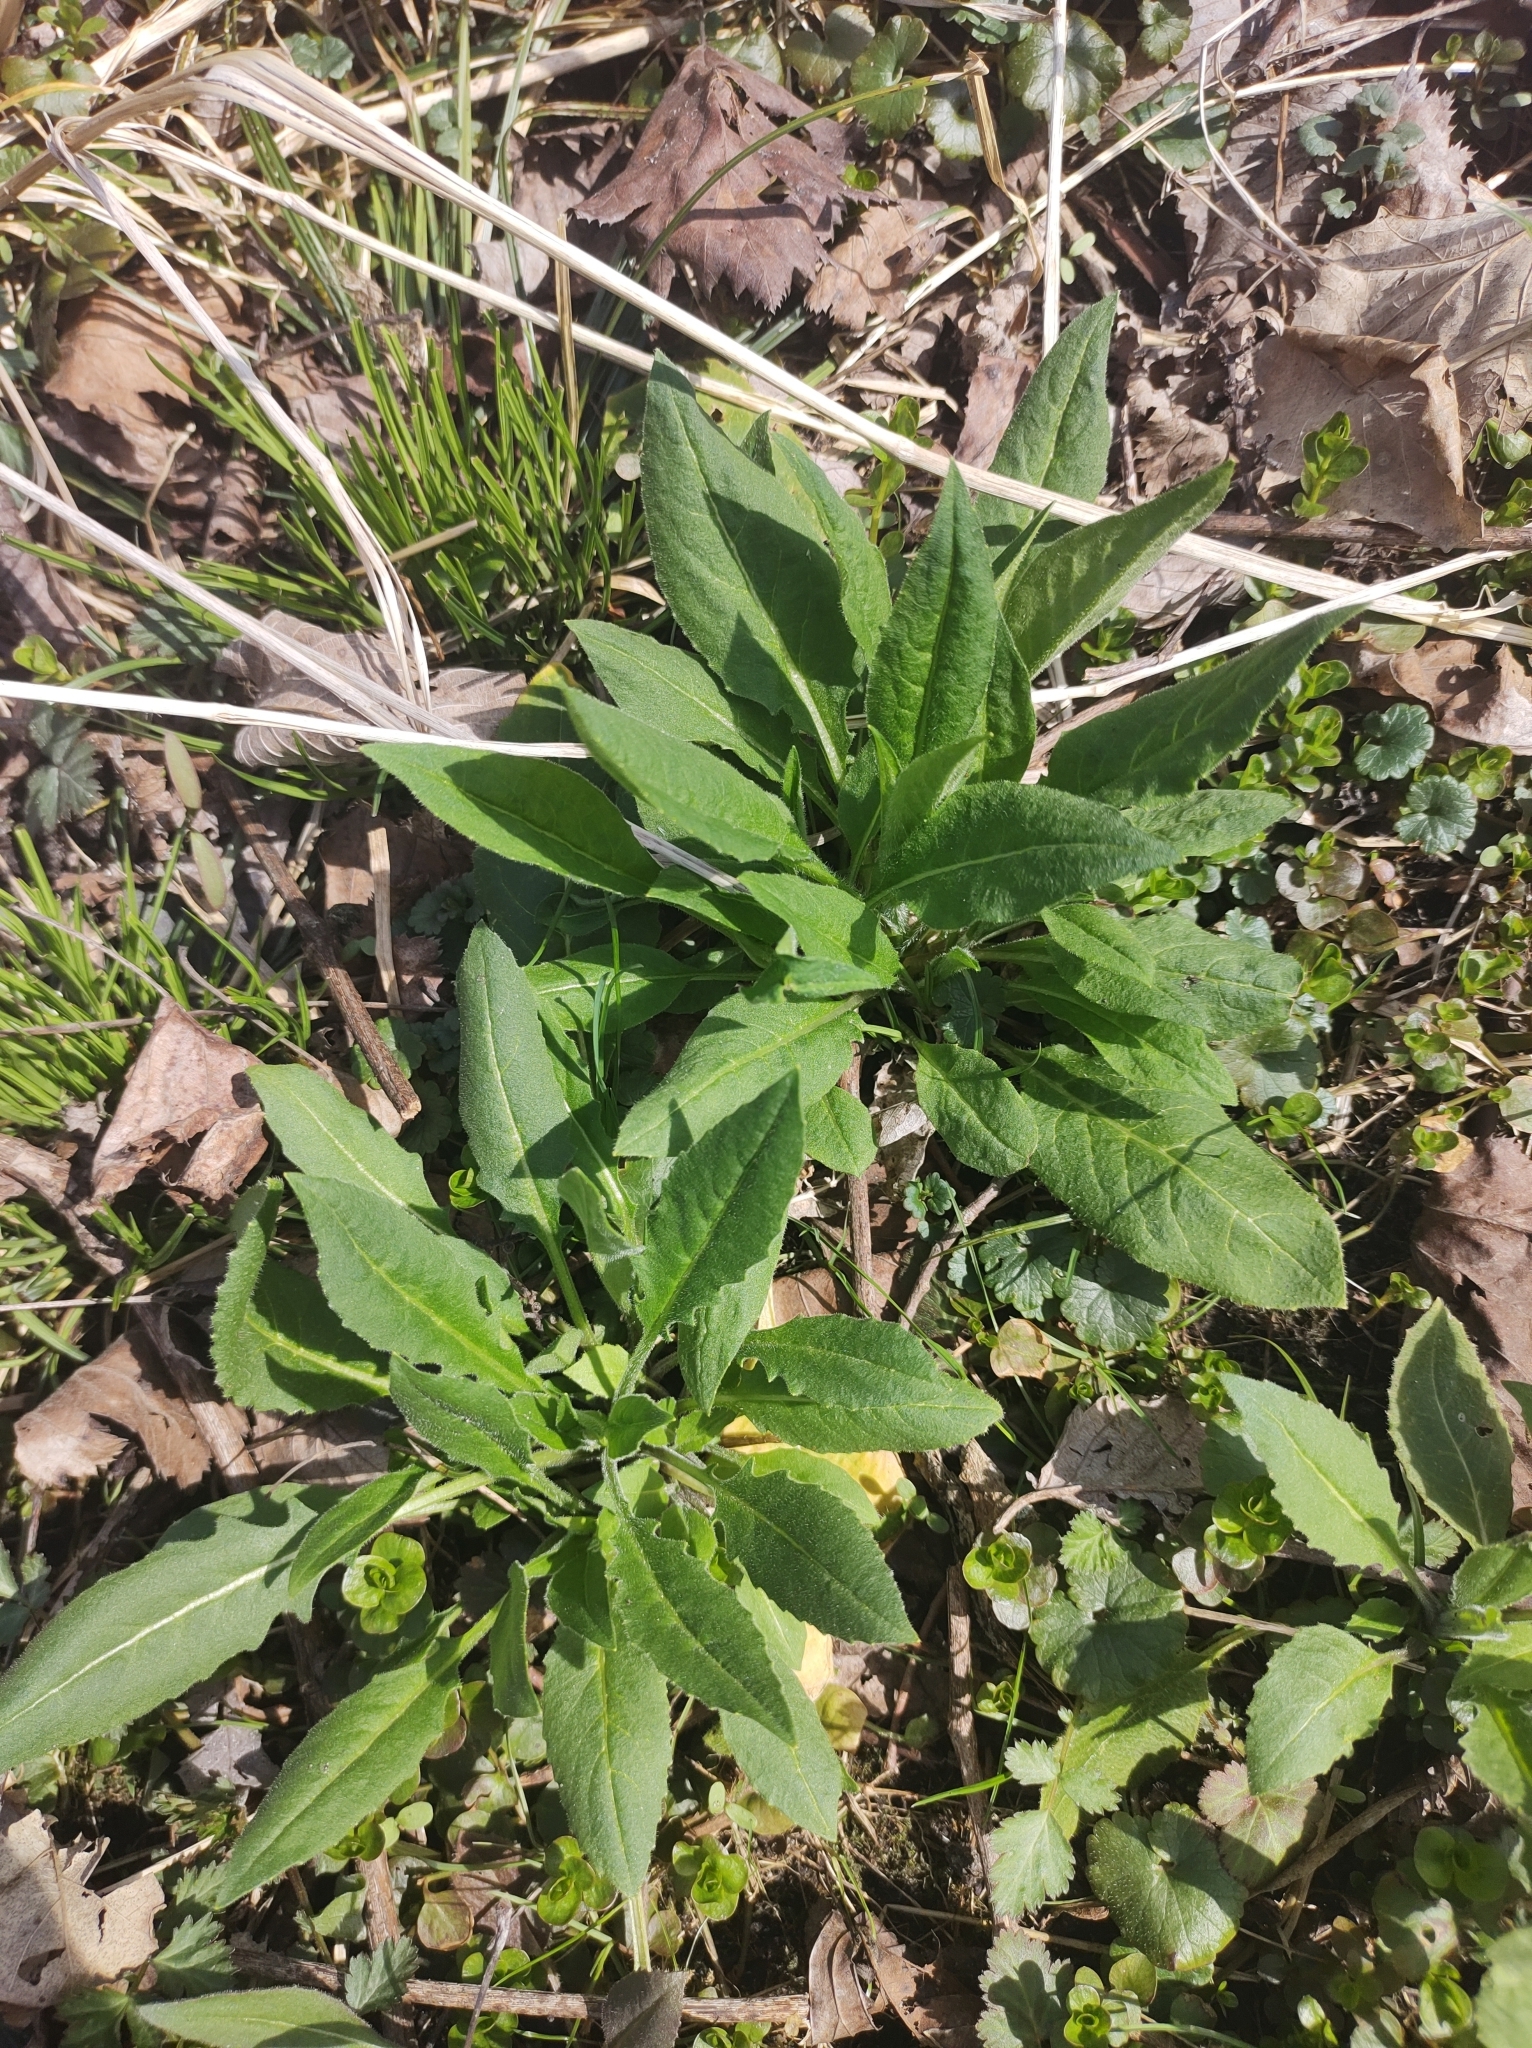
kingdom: Plantae
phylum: Tracheophyta
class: Magnoliopsida
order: Brassicales
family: Brassicaceae
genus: Hesperis
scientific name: Hesperis matronalis
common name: Dame's-violet
